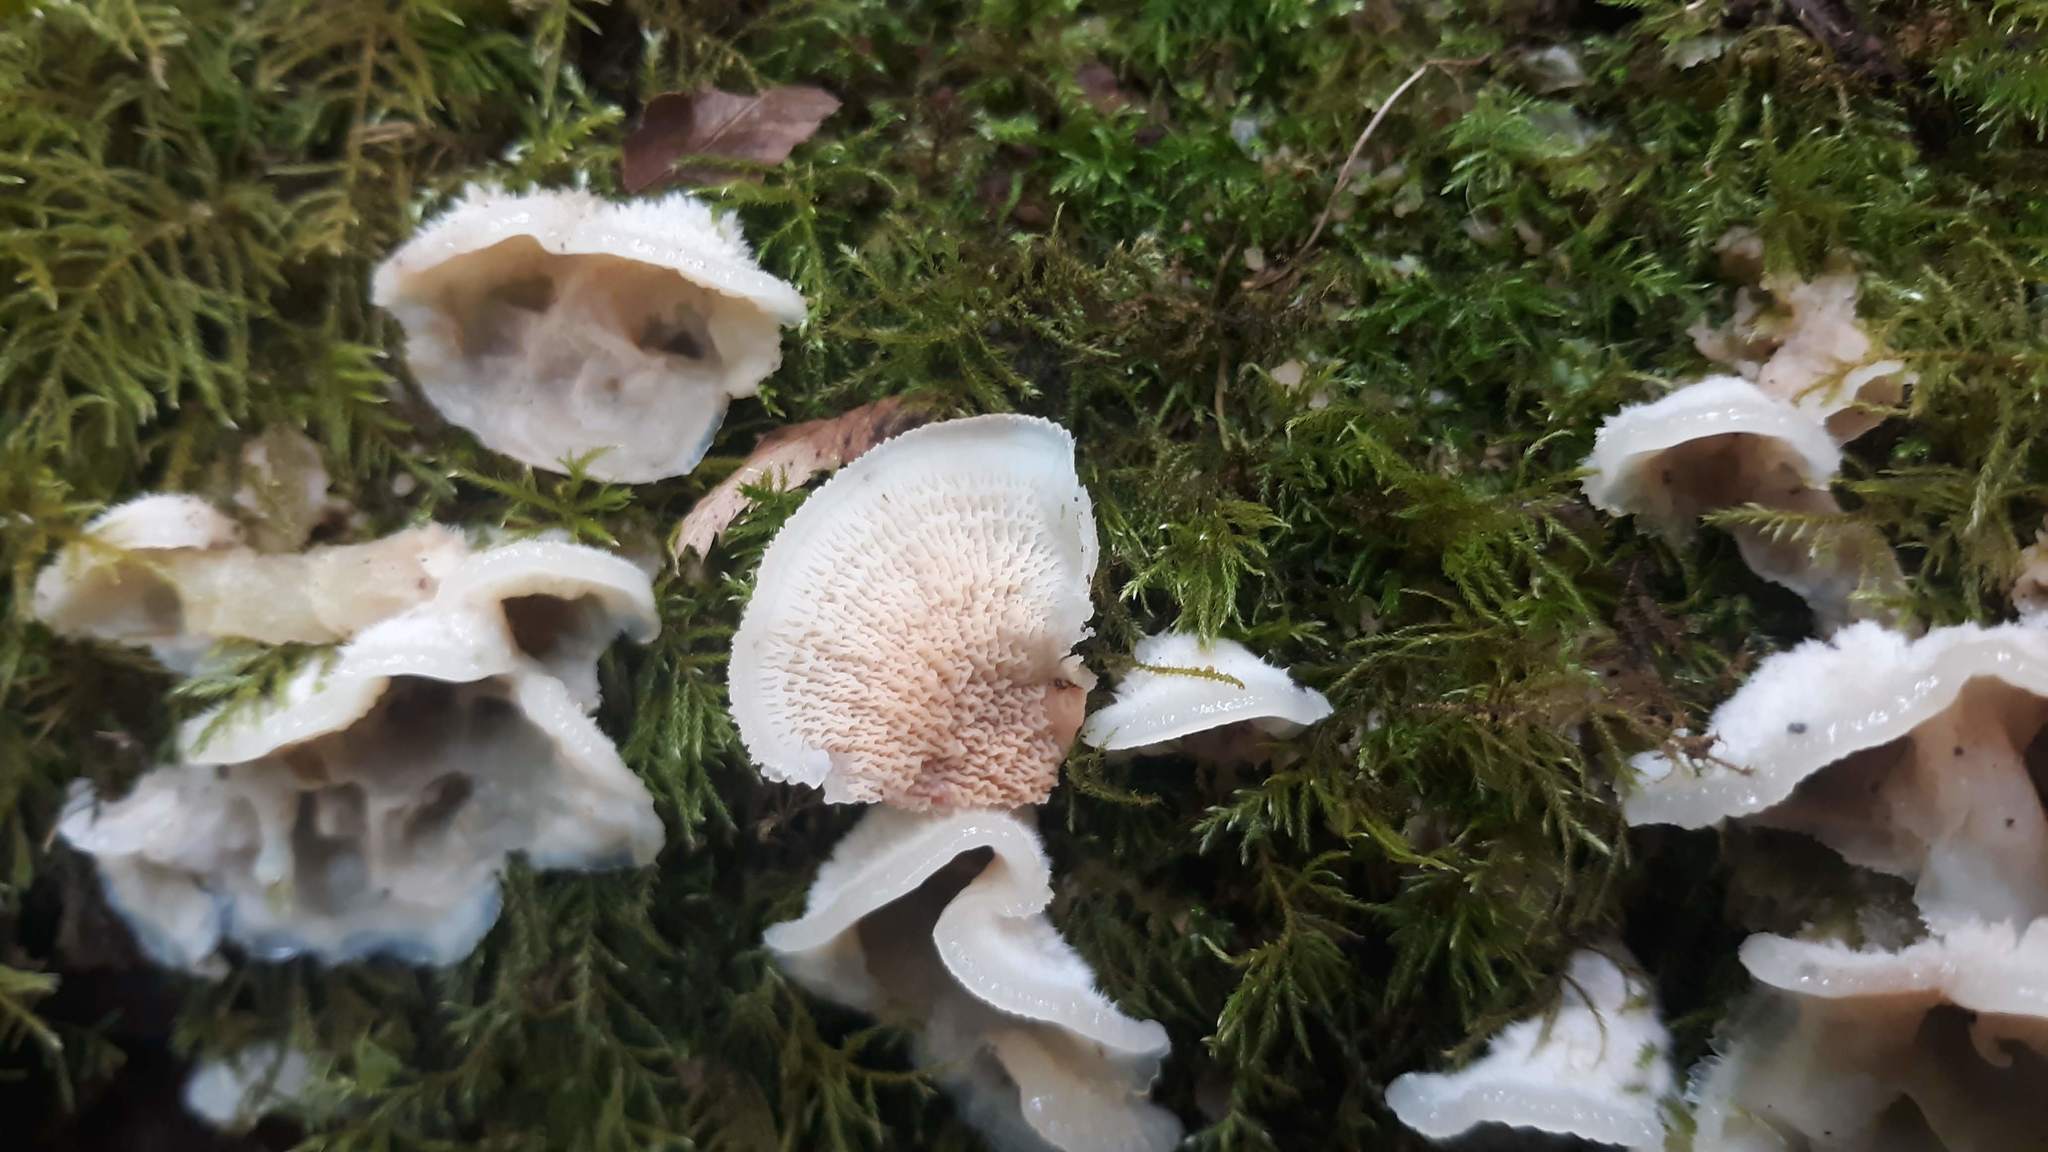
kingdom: Fungi
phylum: Basidiomycota
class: Agaricomycetes
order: Polyporales
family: Meruliaceae
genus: Phlebia
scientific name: Phlebia tremellosa
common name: Jelly rot
